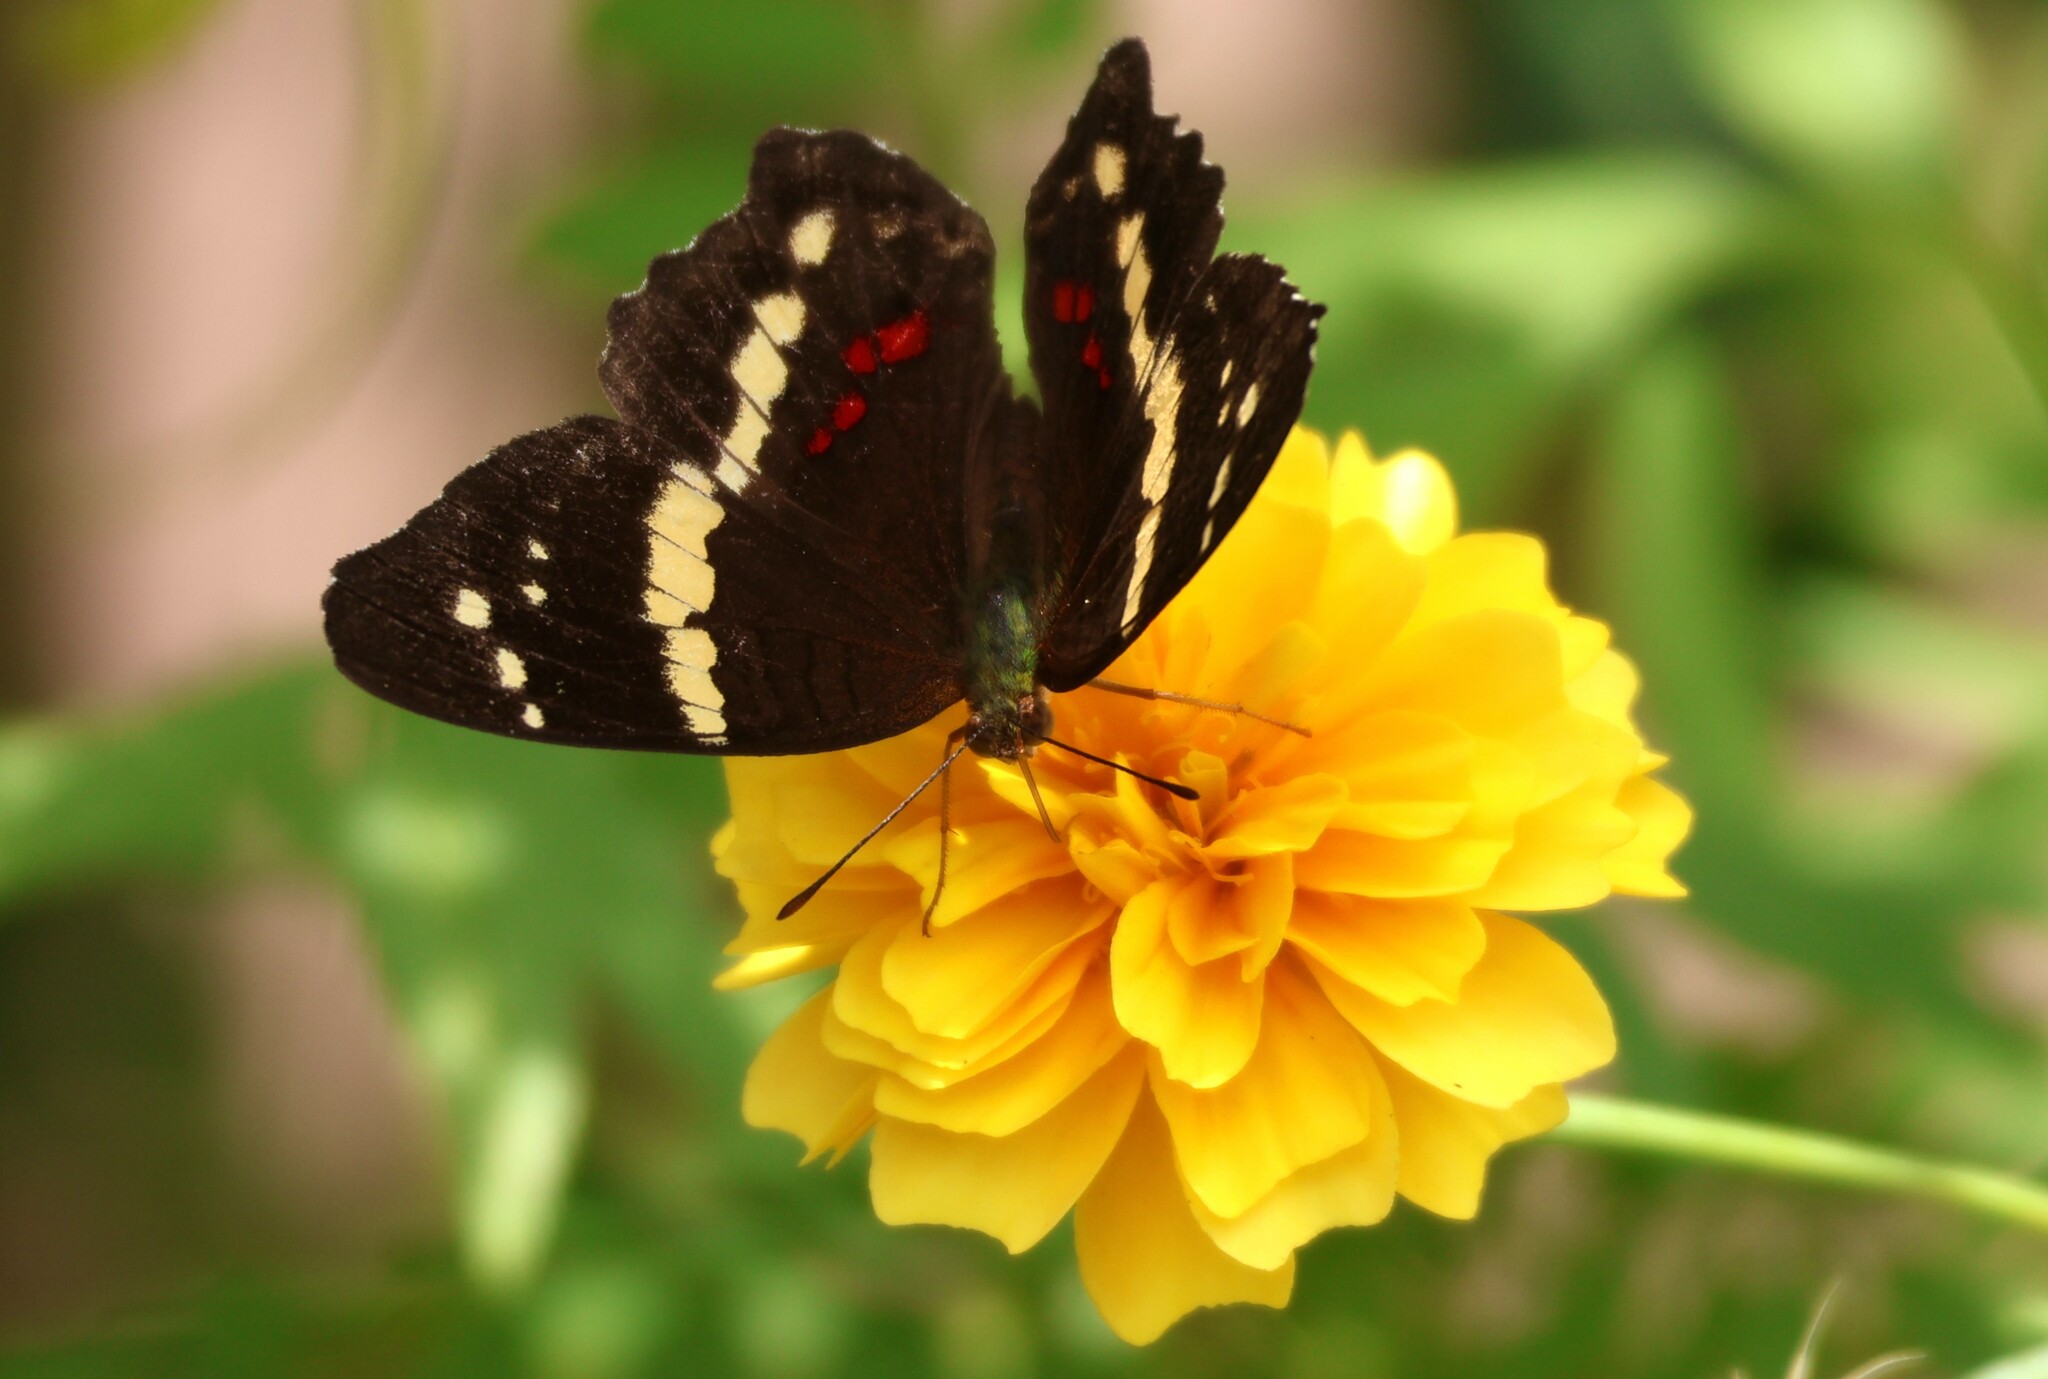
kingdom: Animalia
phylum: Arthropoda
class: Insecta
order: Lepidoptera
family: Nymphalidae
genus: Anartia
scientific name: Anartia fatima
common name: Banded peacock
